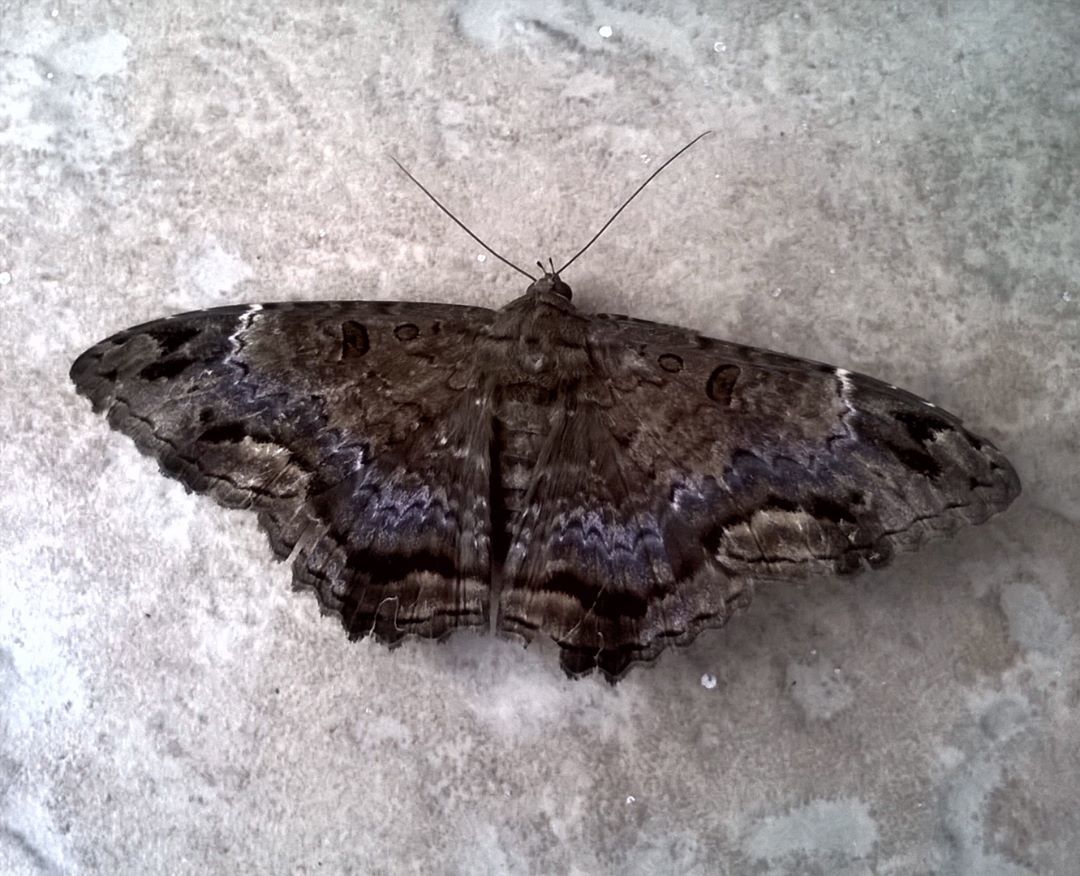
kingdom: Animalia
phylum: Arthropoda
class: Insecta
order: Lepidoptera
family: Erebidae
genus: Feigeria
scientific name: Feigeria
